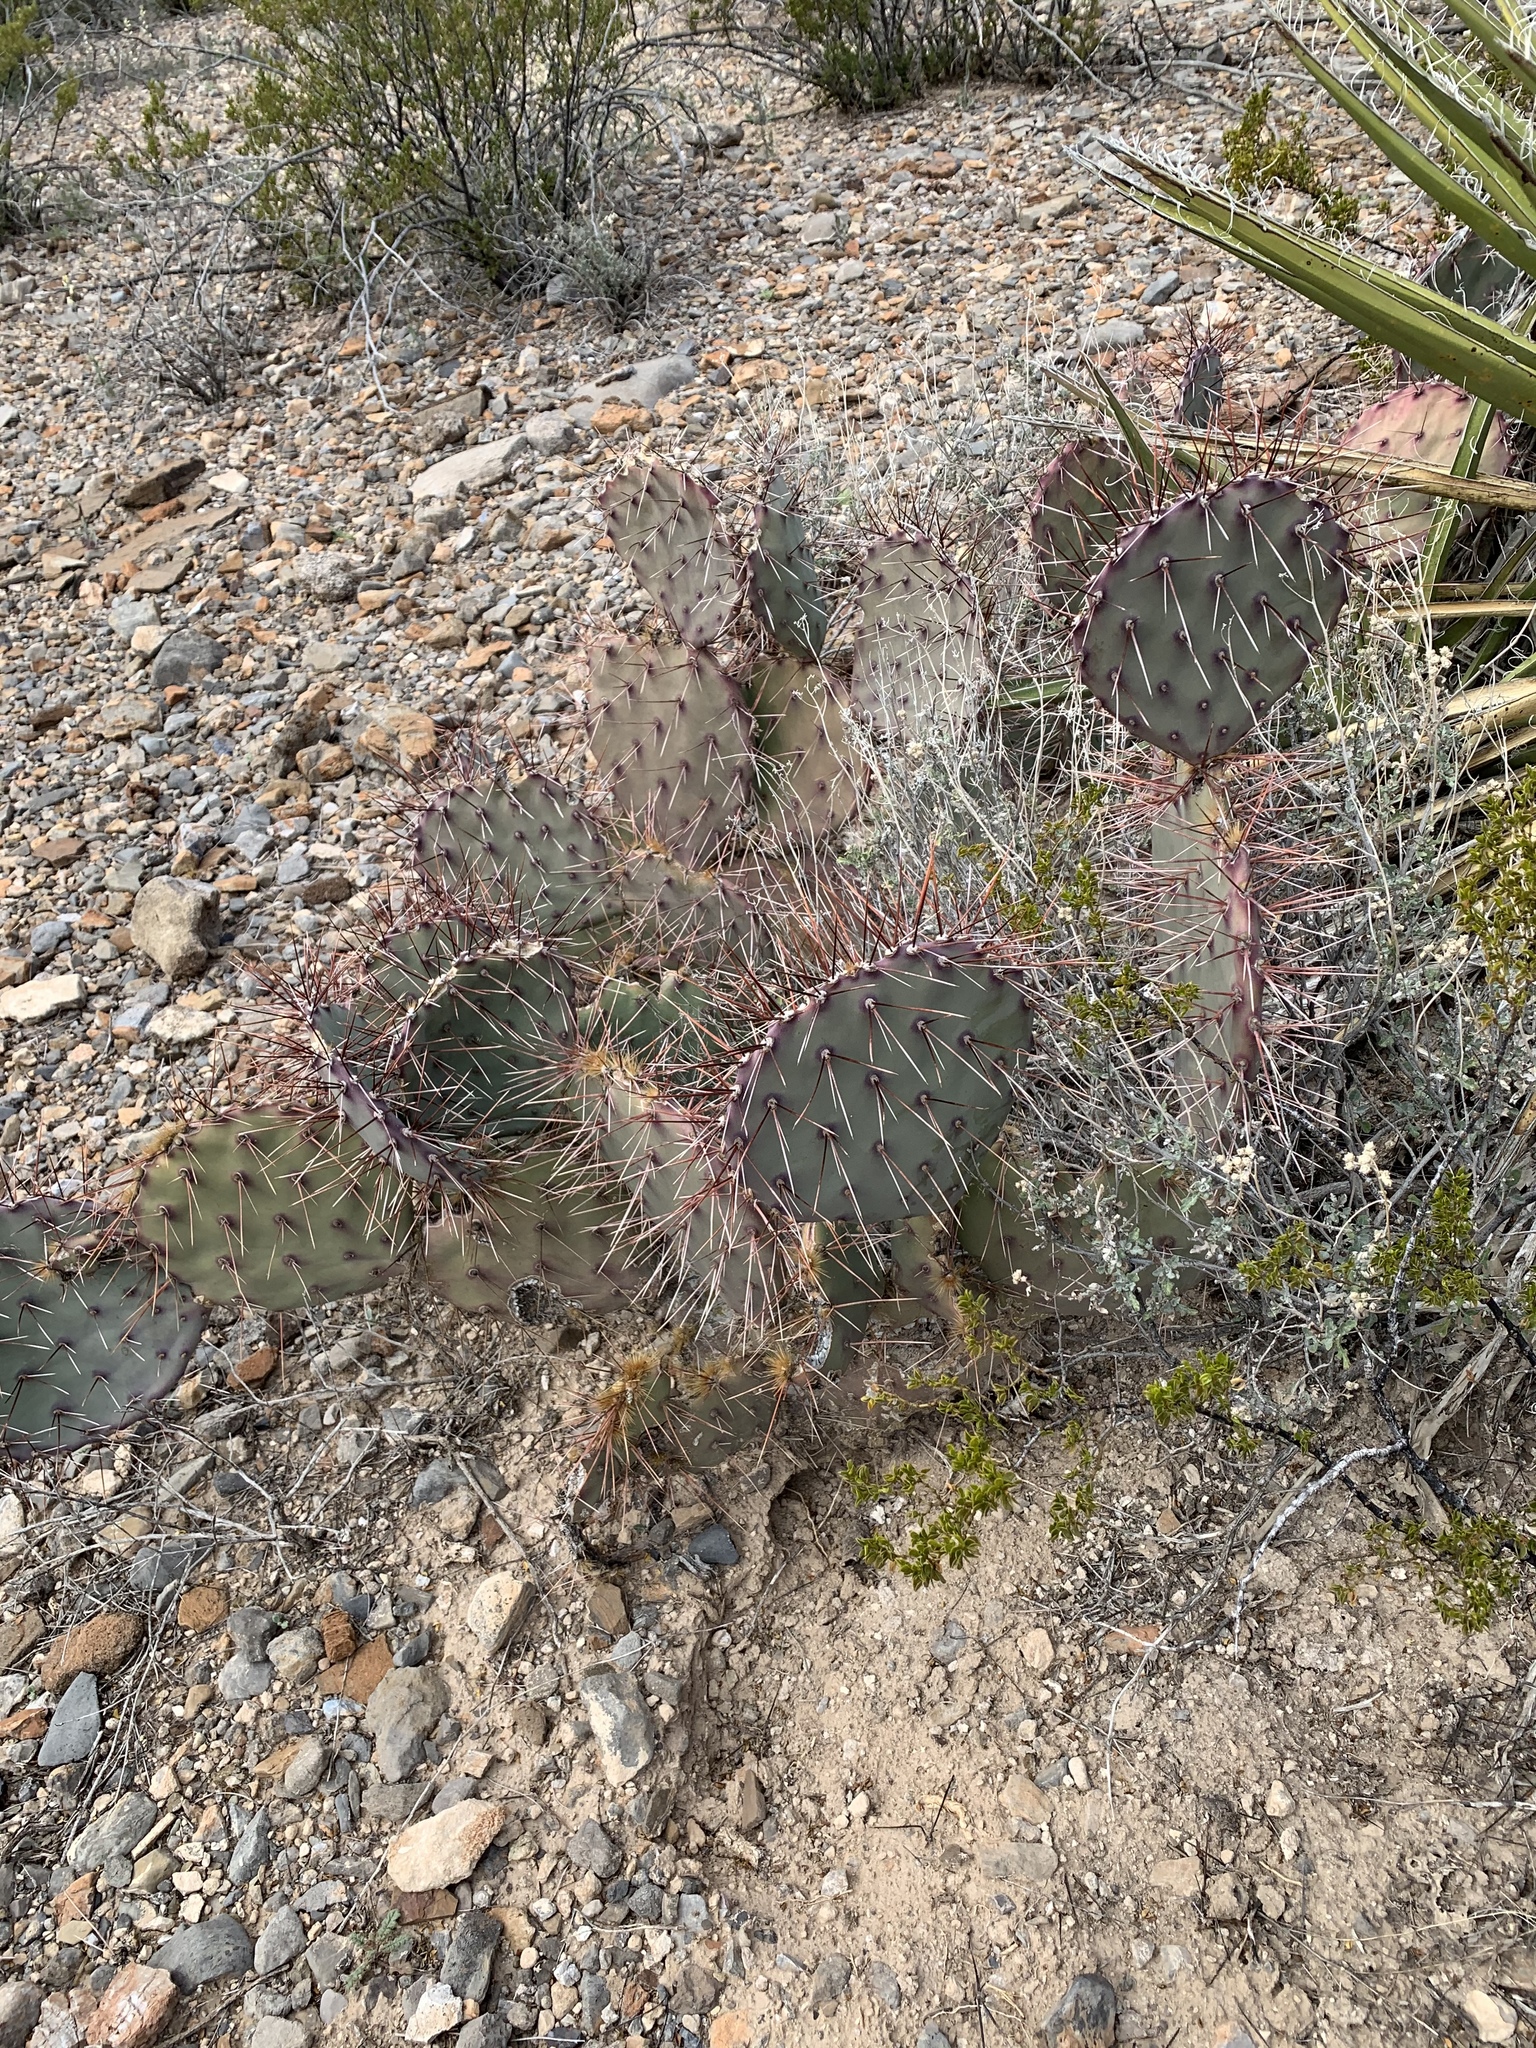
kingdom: Plantae
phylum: Tracheophyta
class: Magnoliopsida
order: Caryophyllales
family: Cactaceae
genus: Opuntia
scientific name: Opuntia macrocentra
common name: Purple prickly-pear
